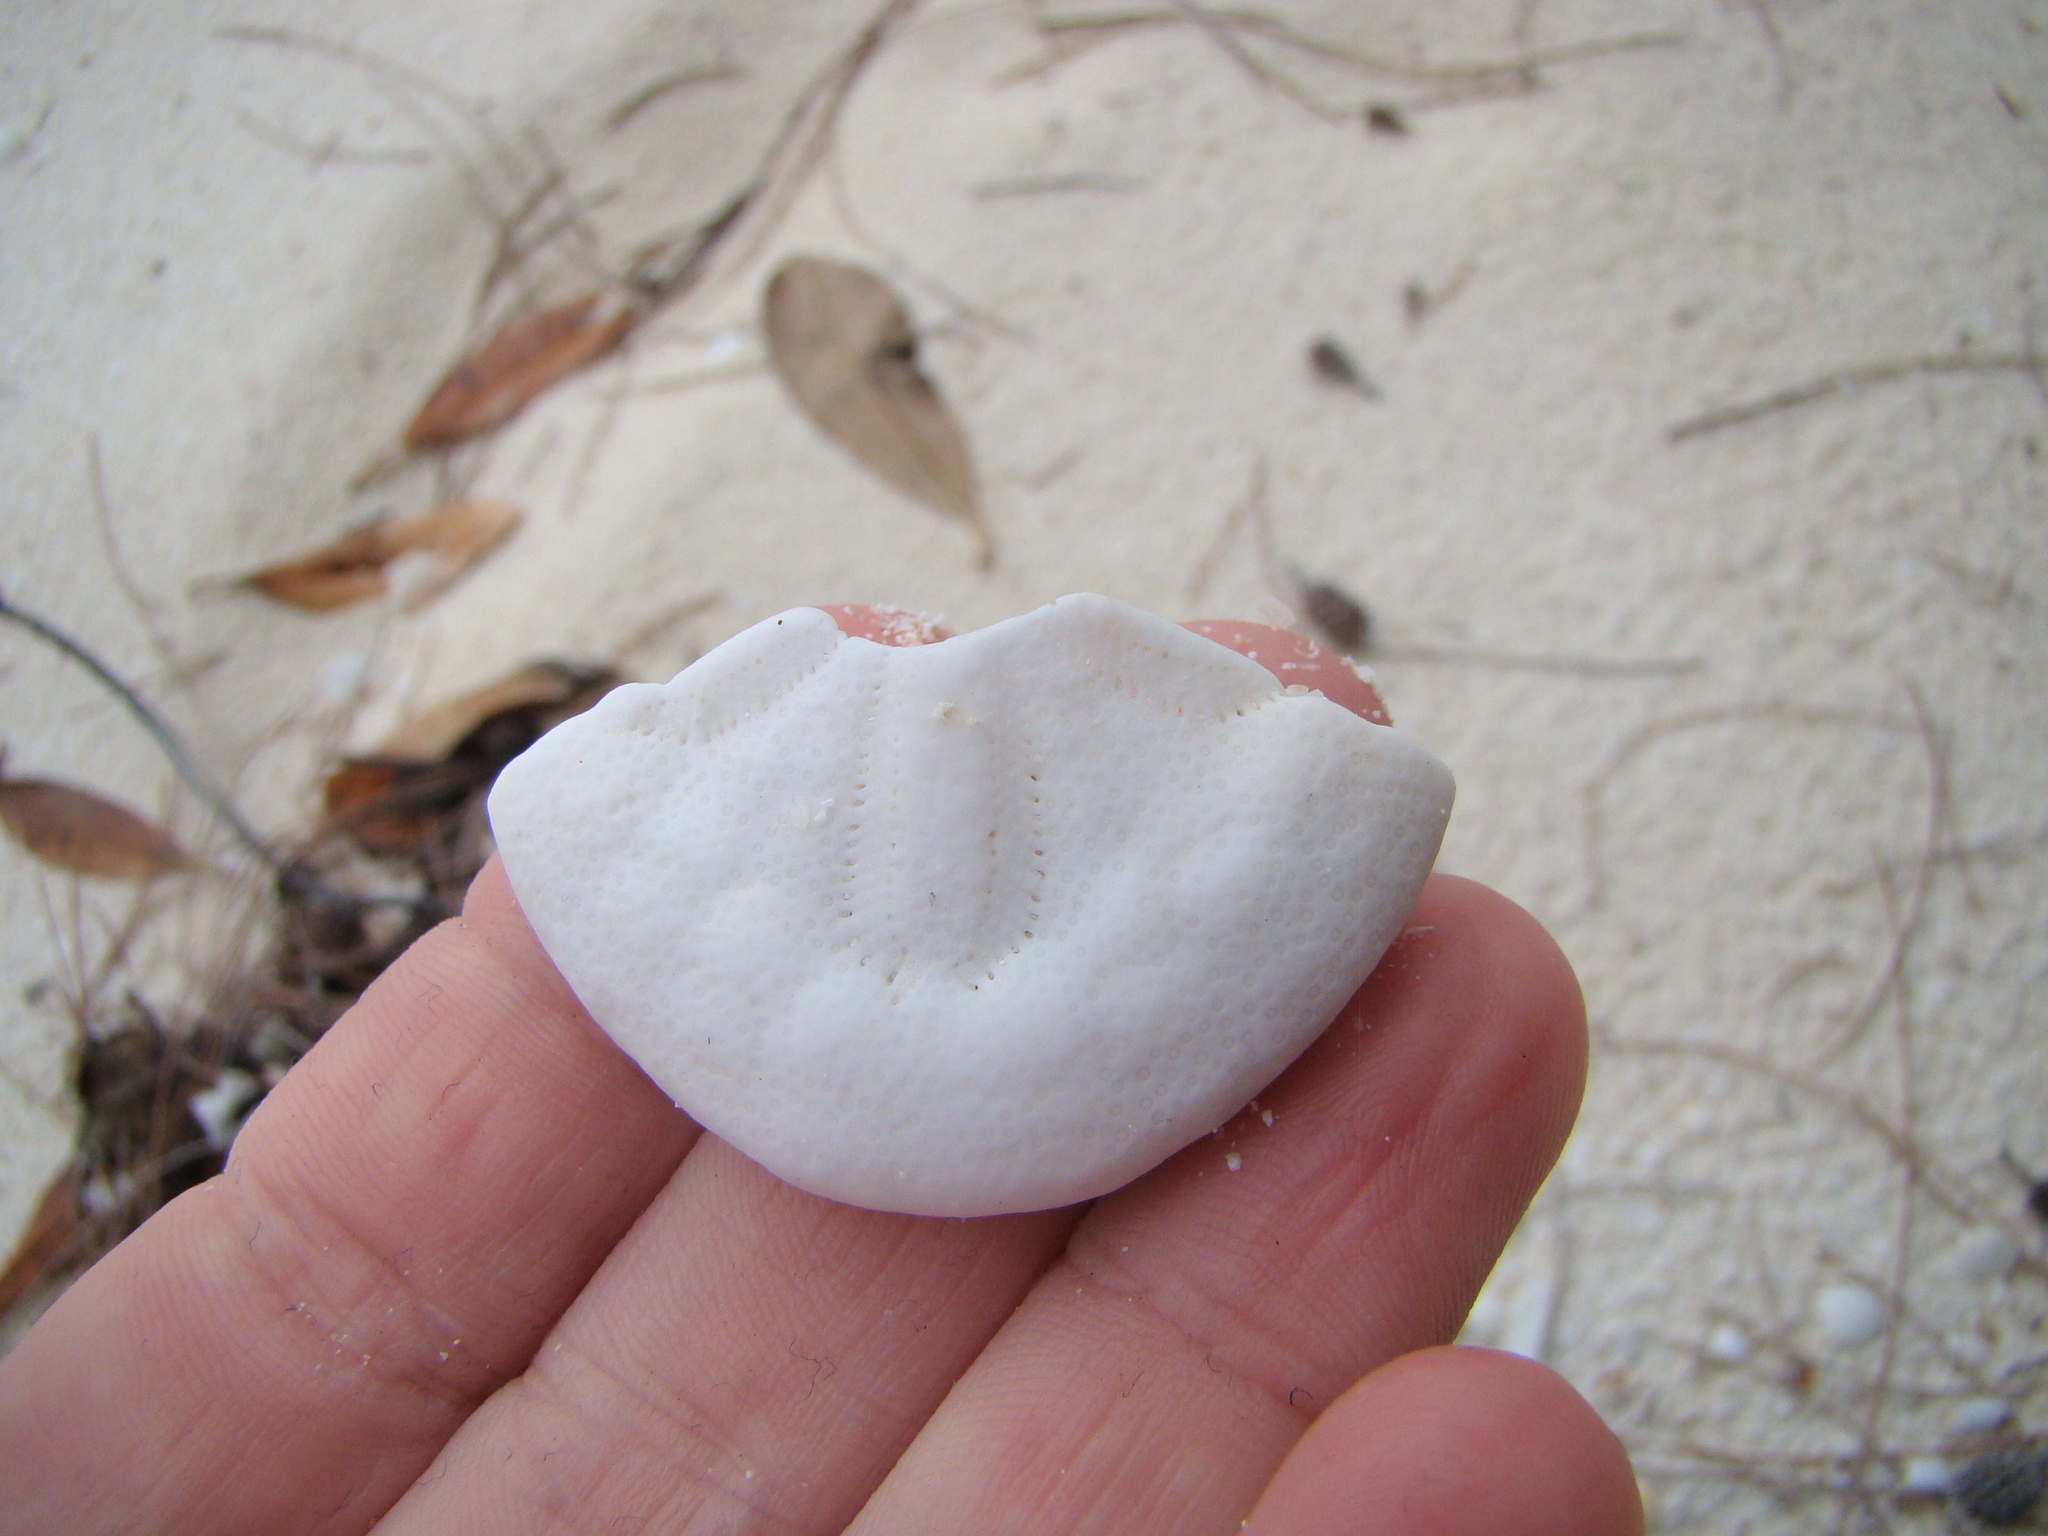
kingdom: Animalia
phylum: Echinodermata
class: Echinoidea
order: Clypeasteroida
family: Clypeasteridae
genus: Clypeaster
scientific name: Clypeaster reticulatus
